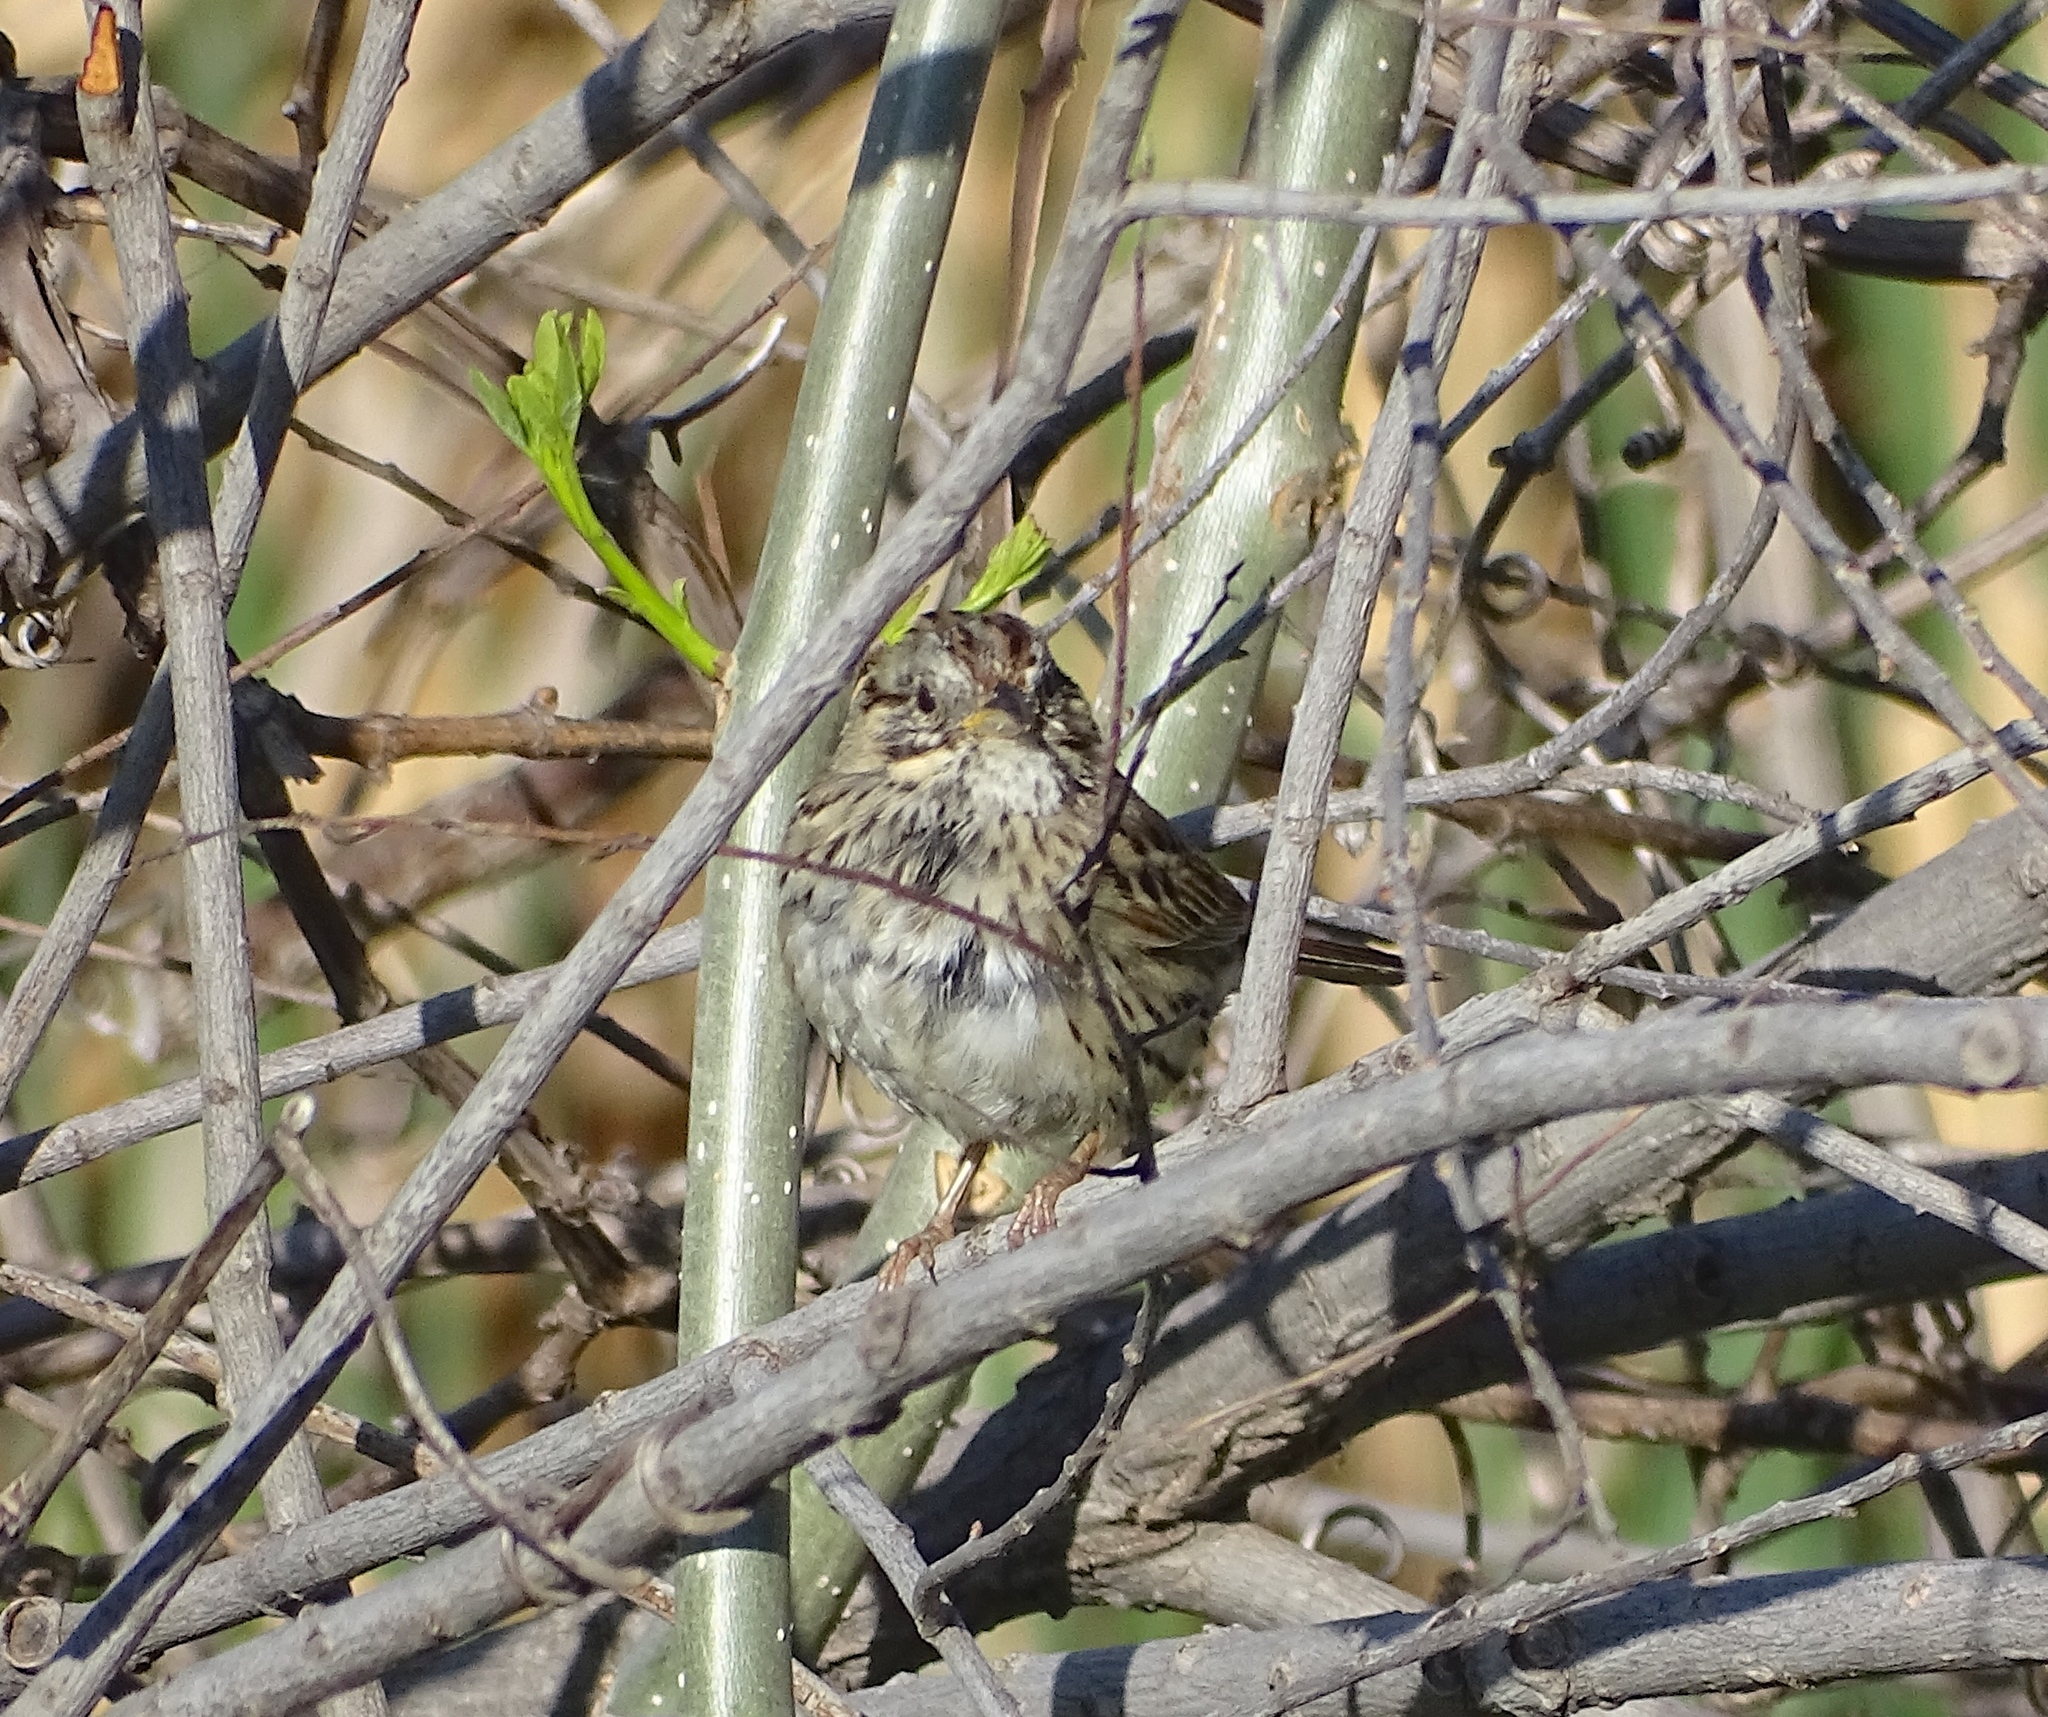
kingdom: Animalia
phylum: Chordata
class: Aves
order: Passeriformes
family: Passerellidae
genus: Melospiza
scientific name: Melospiza lincolnii
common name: Lincoln's sparrow
